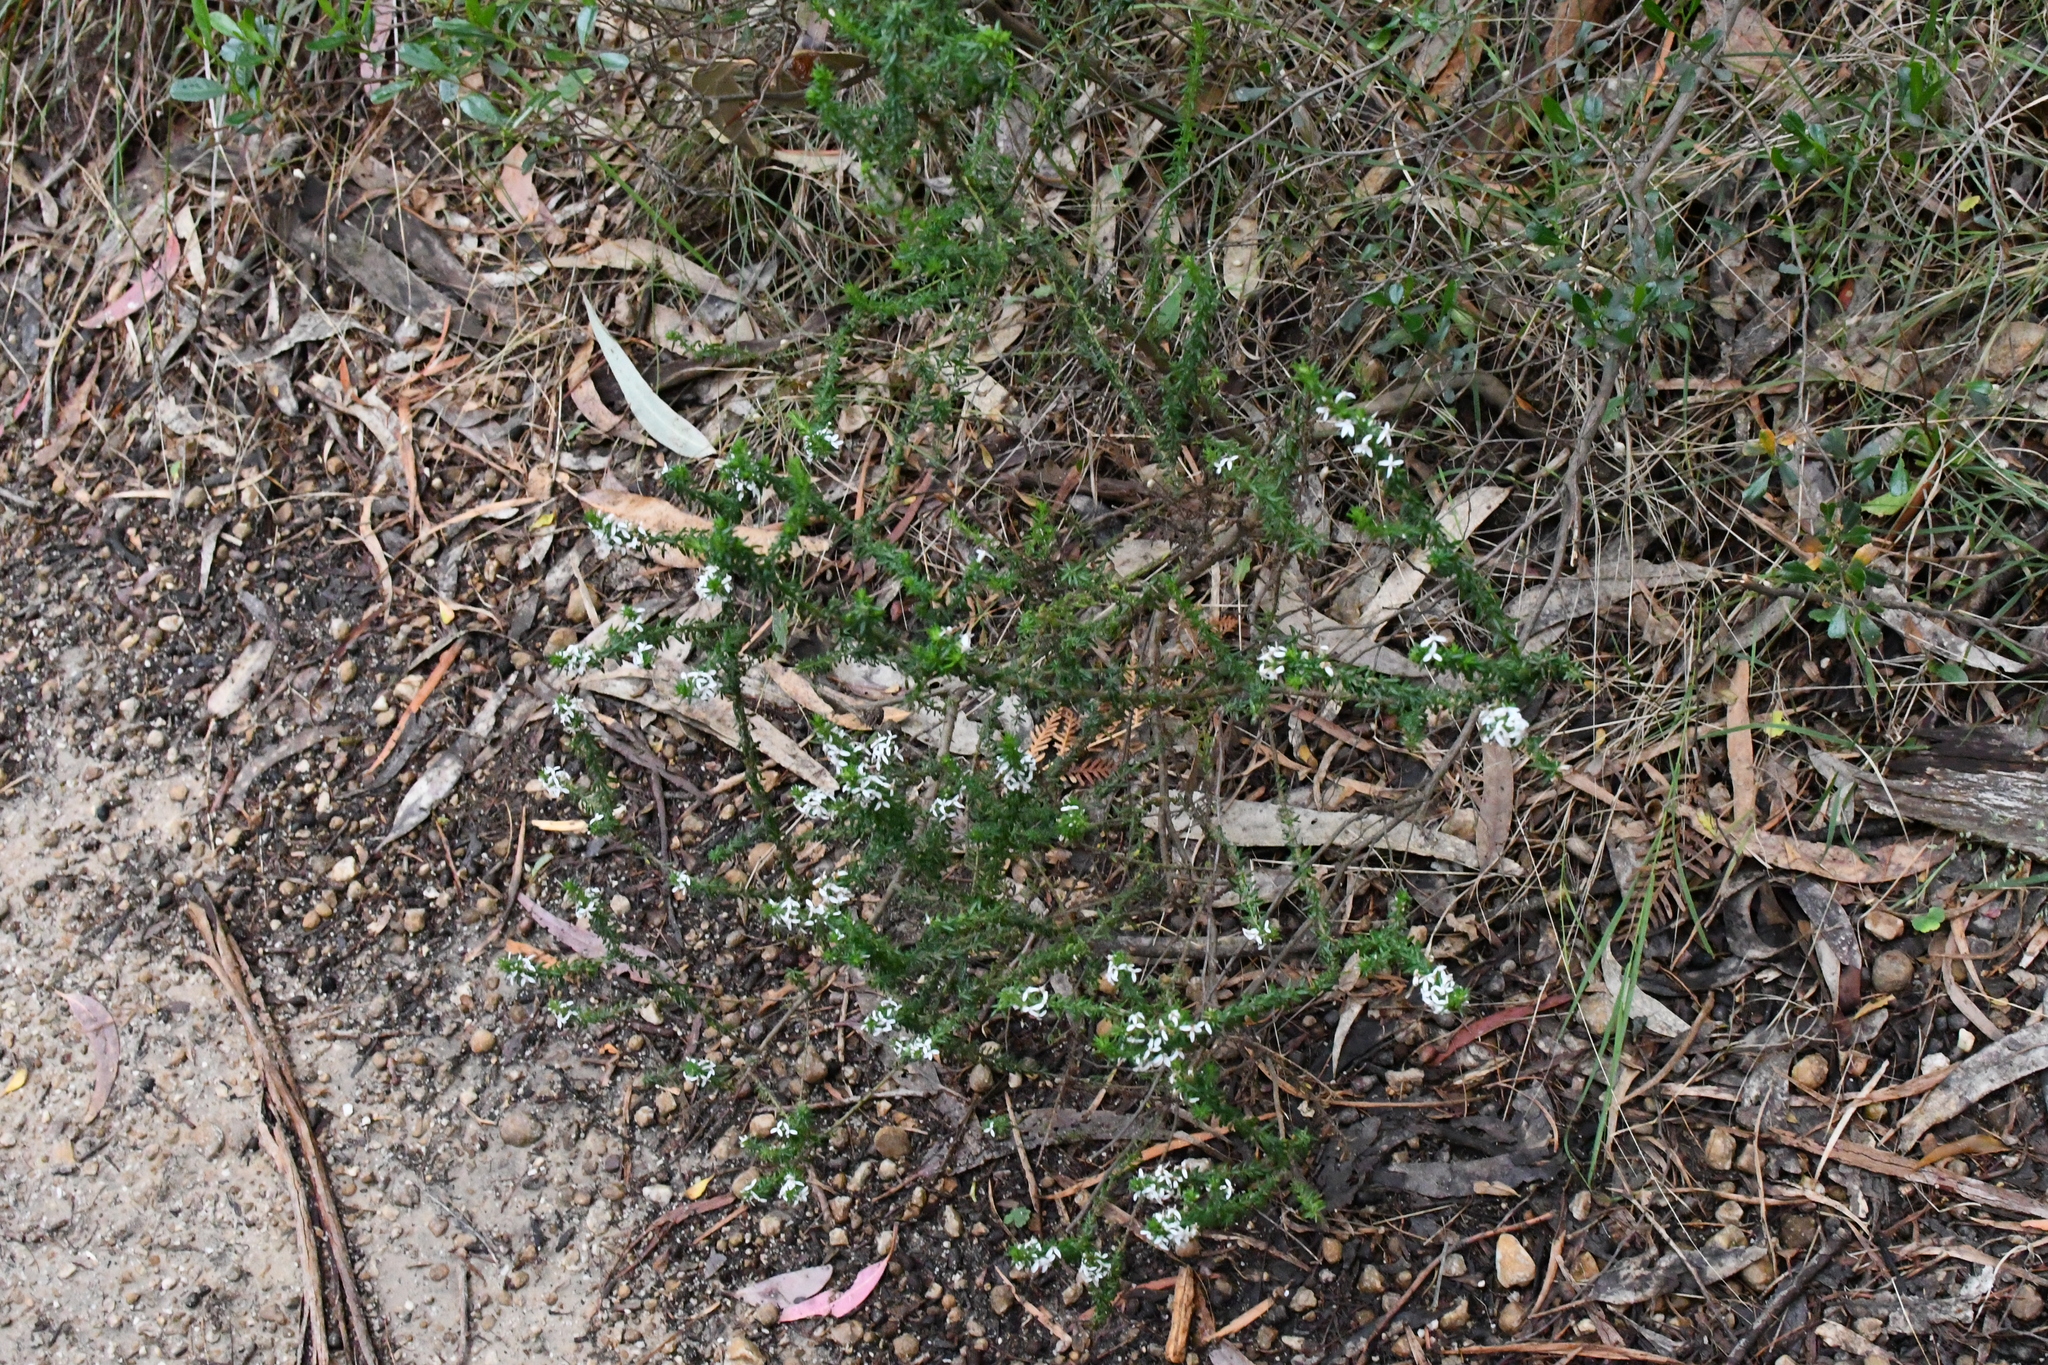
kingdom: Plantae
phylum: Tracheophyta
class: Magnoliopsida
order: Asterales
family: Asteraceae
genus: Olearia
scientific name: Olearia ramulosa
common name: Twiggy daisybush
